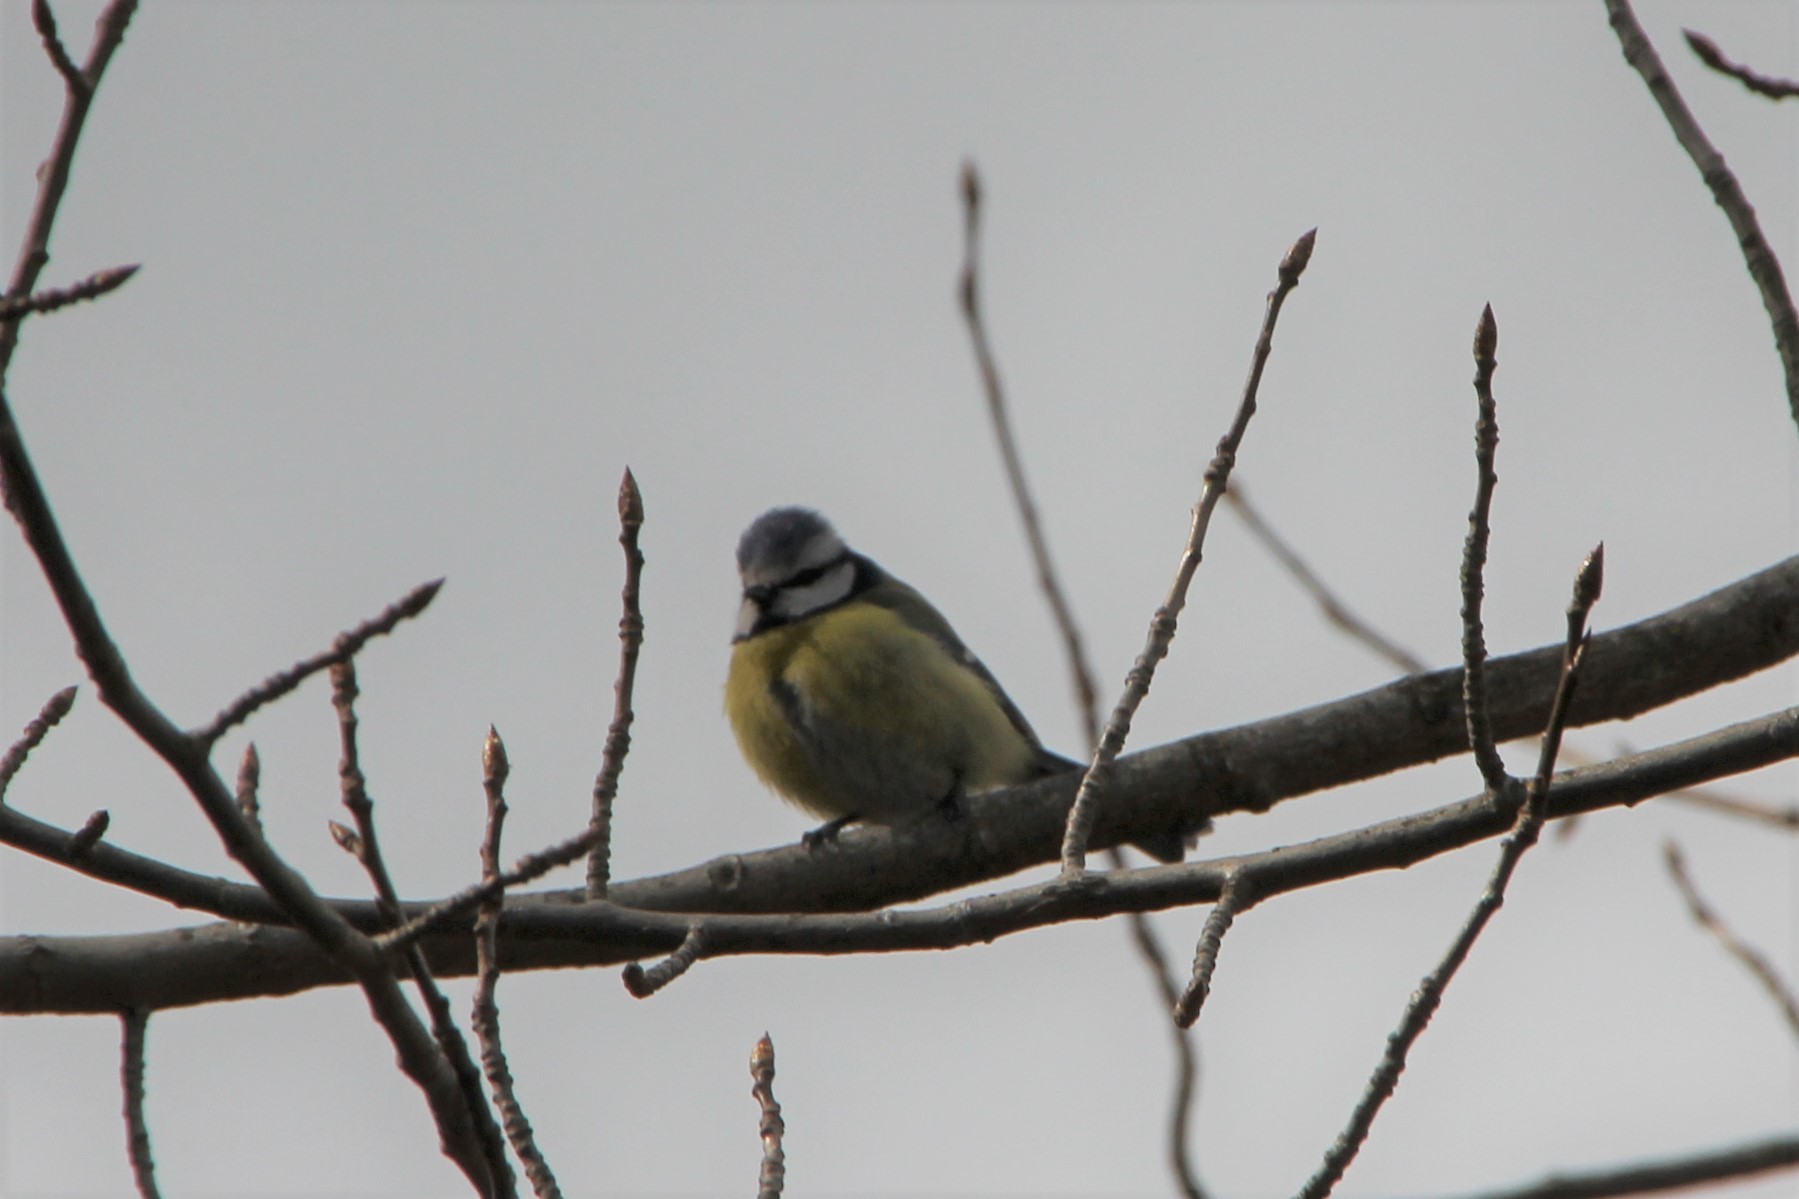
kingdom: Animalia
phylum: Chordata
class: Aves
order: Passeriformes
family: Paridae
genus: Cyanistes
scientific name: Cyanistes caeruleus
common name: Eurasian blue tit
